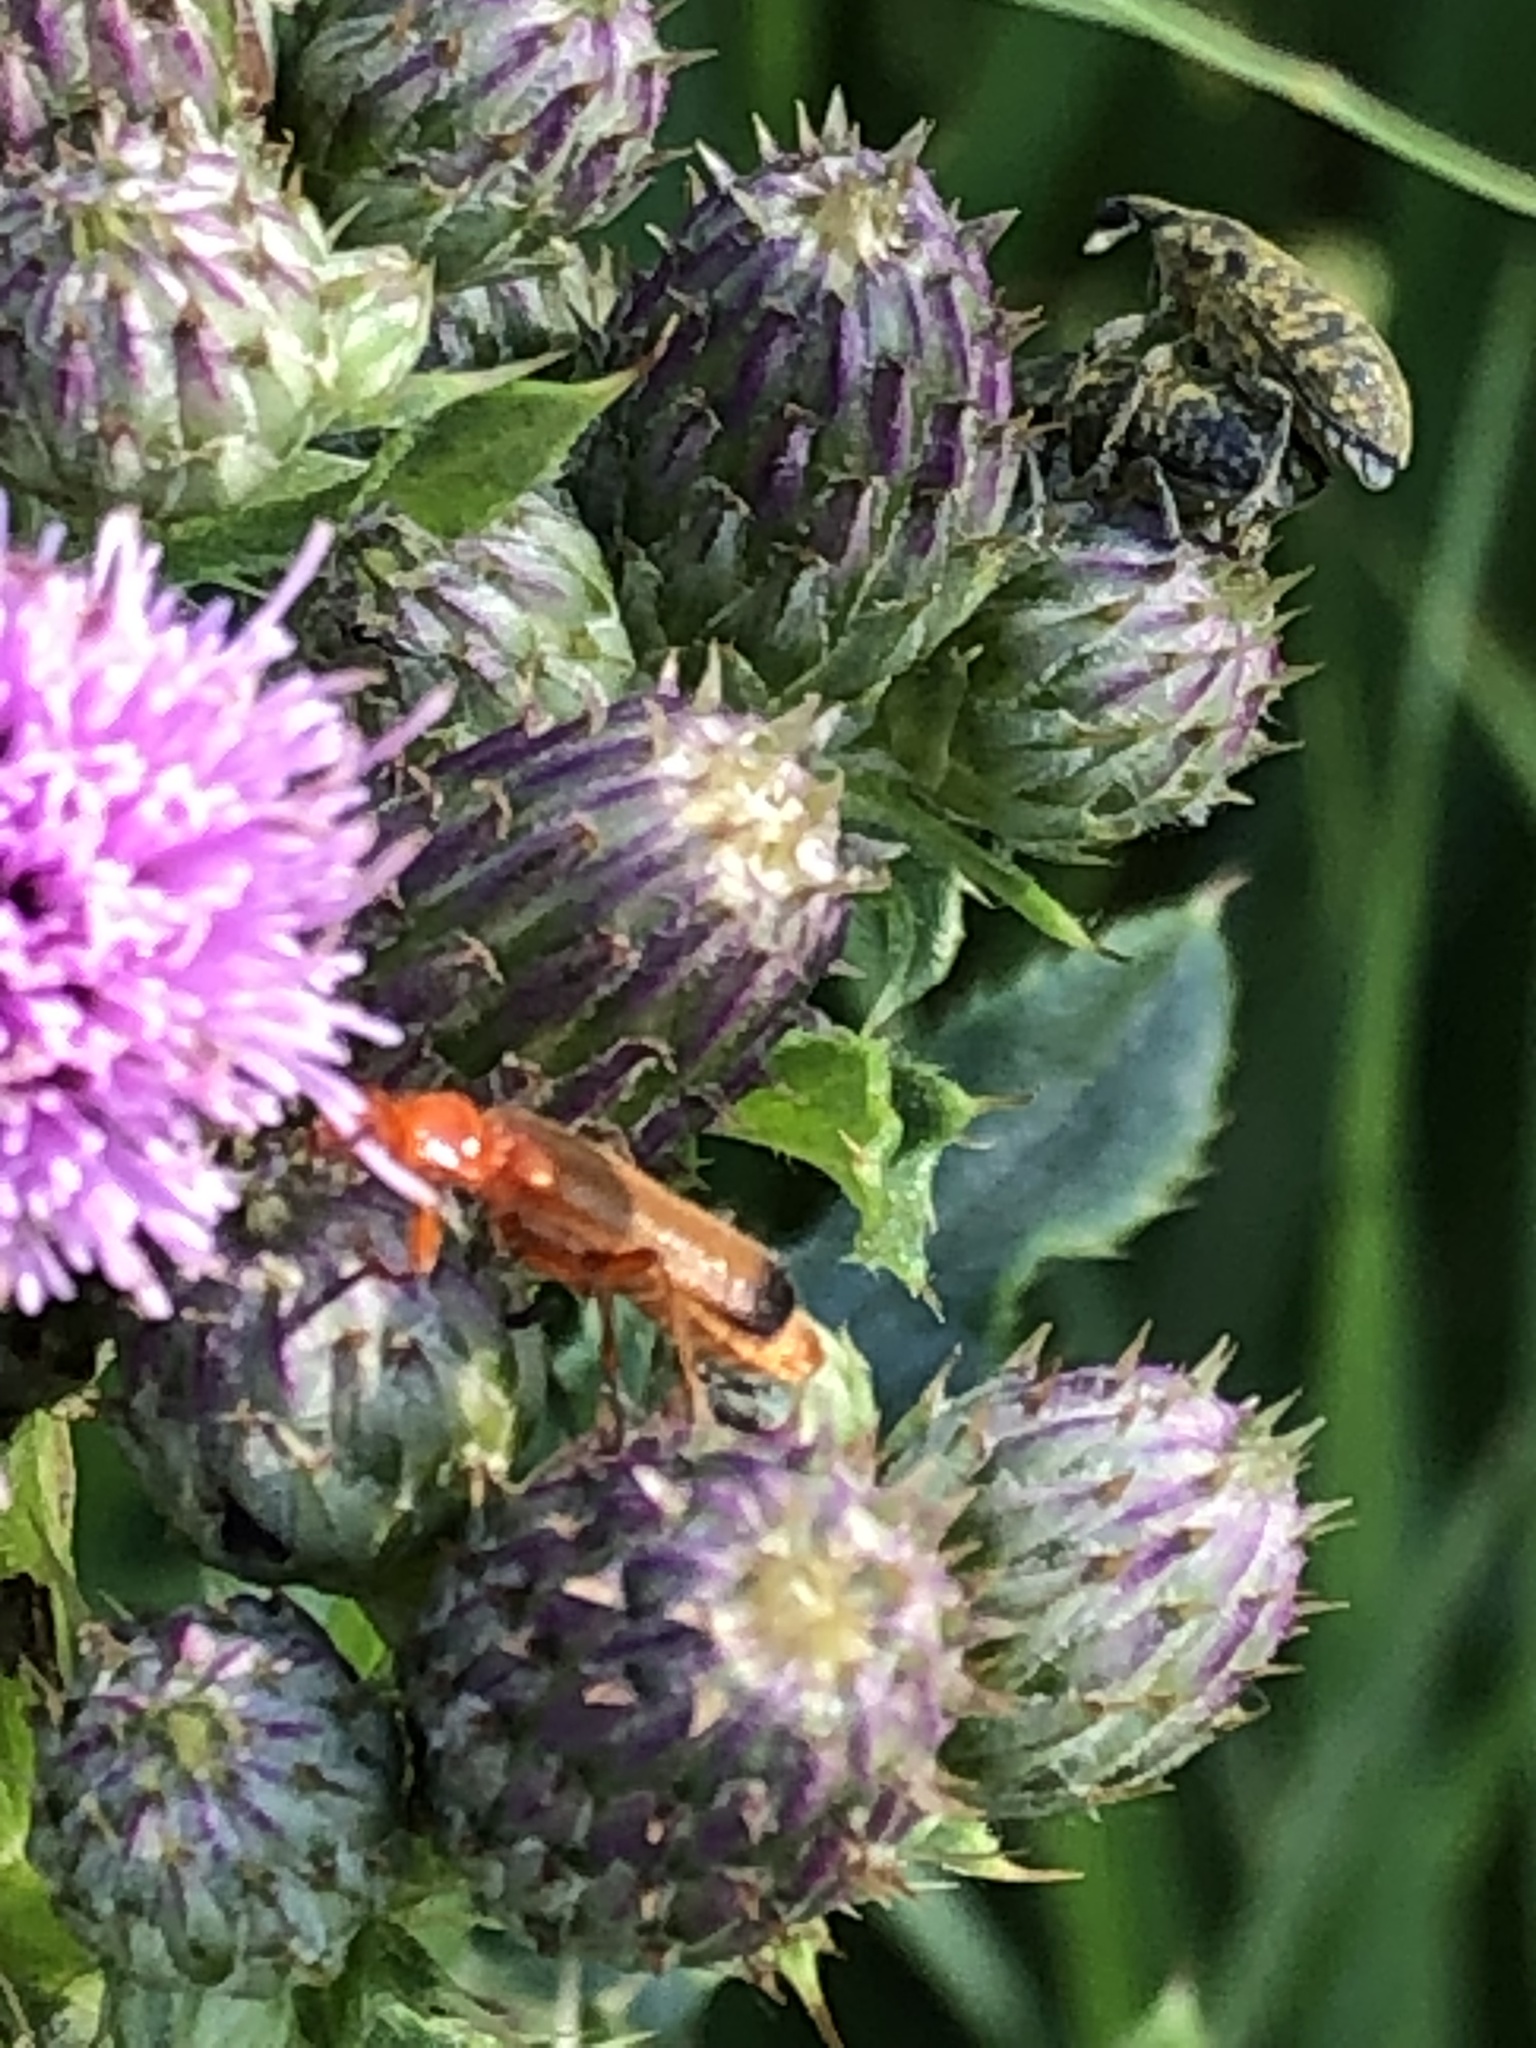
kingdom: Animalia
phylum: Arthropoda
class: Insecta
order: Coleoptera
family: Cantharidae
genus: Rhagonycha
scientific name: Rhagonycha fulva
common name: Common red soldier beetle
